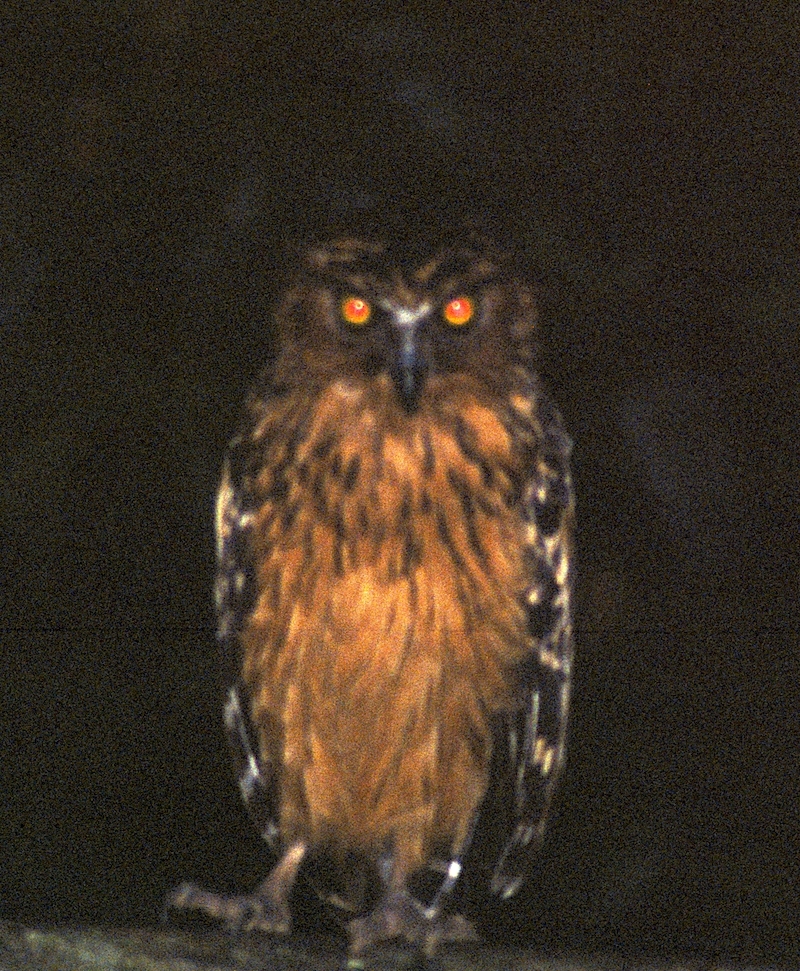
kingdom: Animalia
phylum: Chordata
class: Aves
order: Strigiformes
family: Strigidae
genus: Ketupa
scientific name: Ketupa ketupu
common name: Buffy fish-owl
